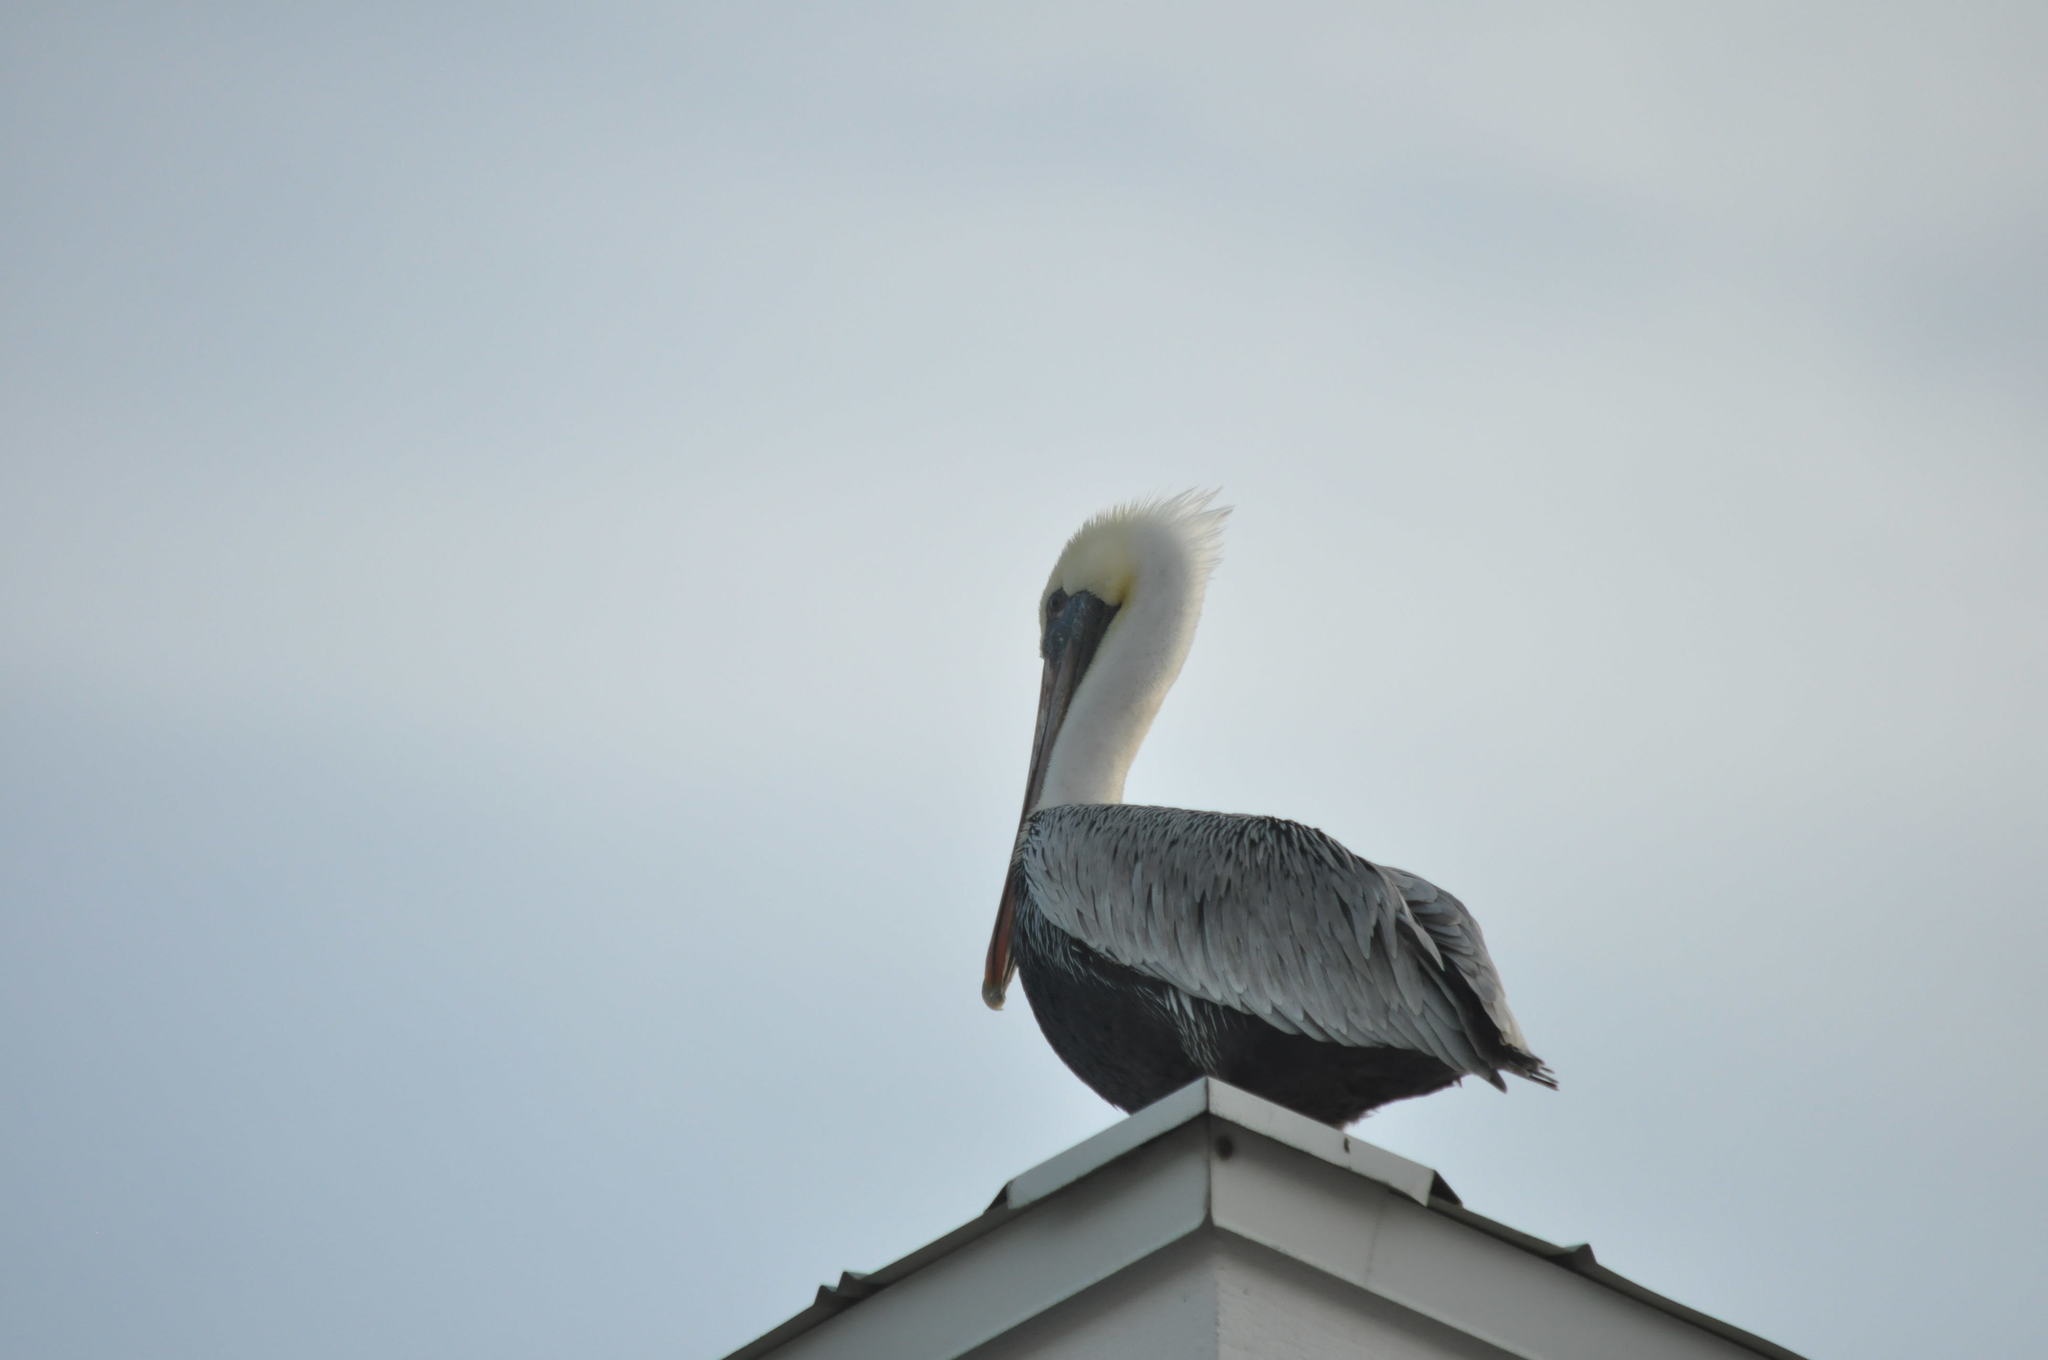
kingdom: Animalia
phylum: Chordata
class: Aves
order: Pelecaniformes
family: Pelecanidae
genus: Pelecanus
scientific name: Pelecanus occidentalis
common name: Brown pelican
